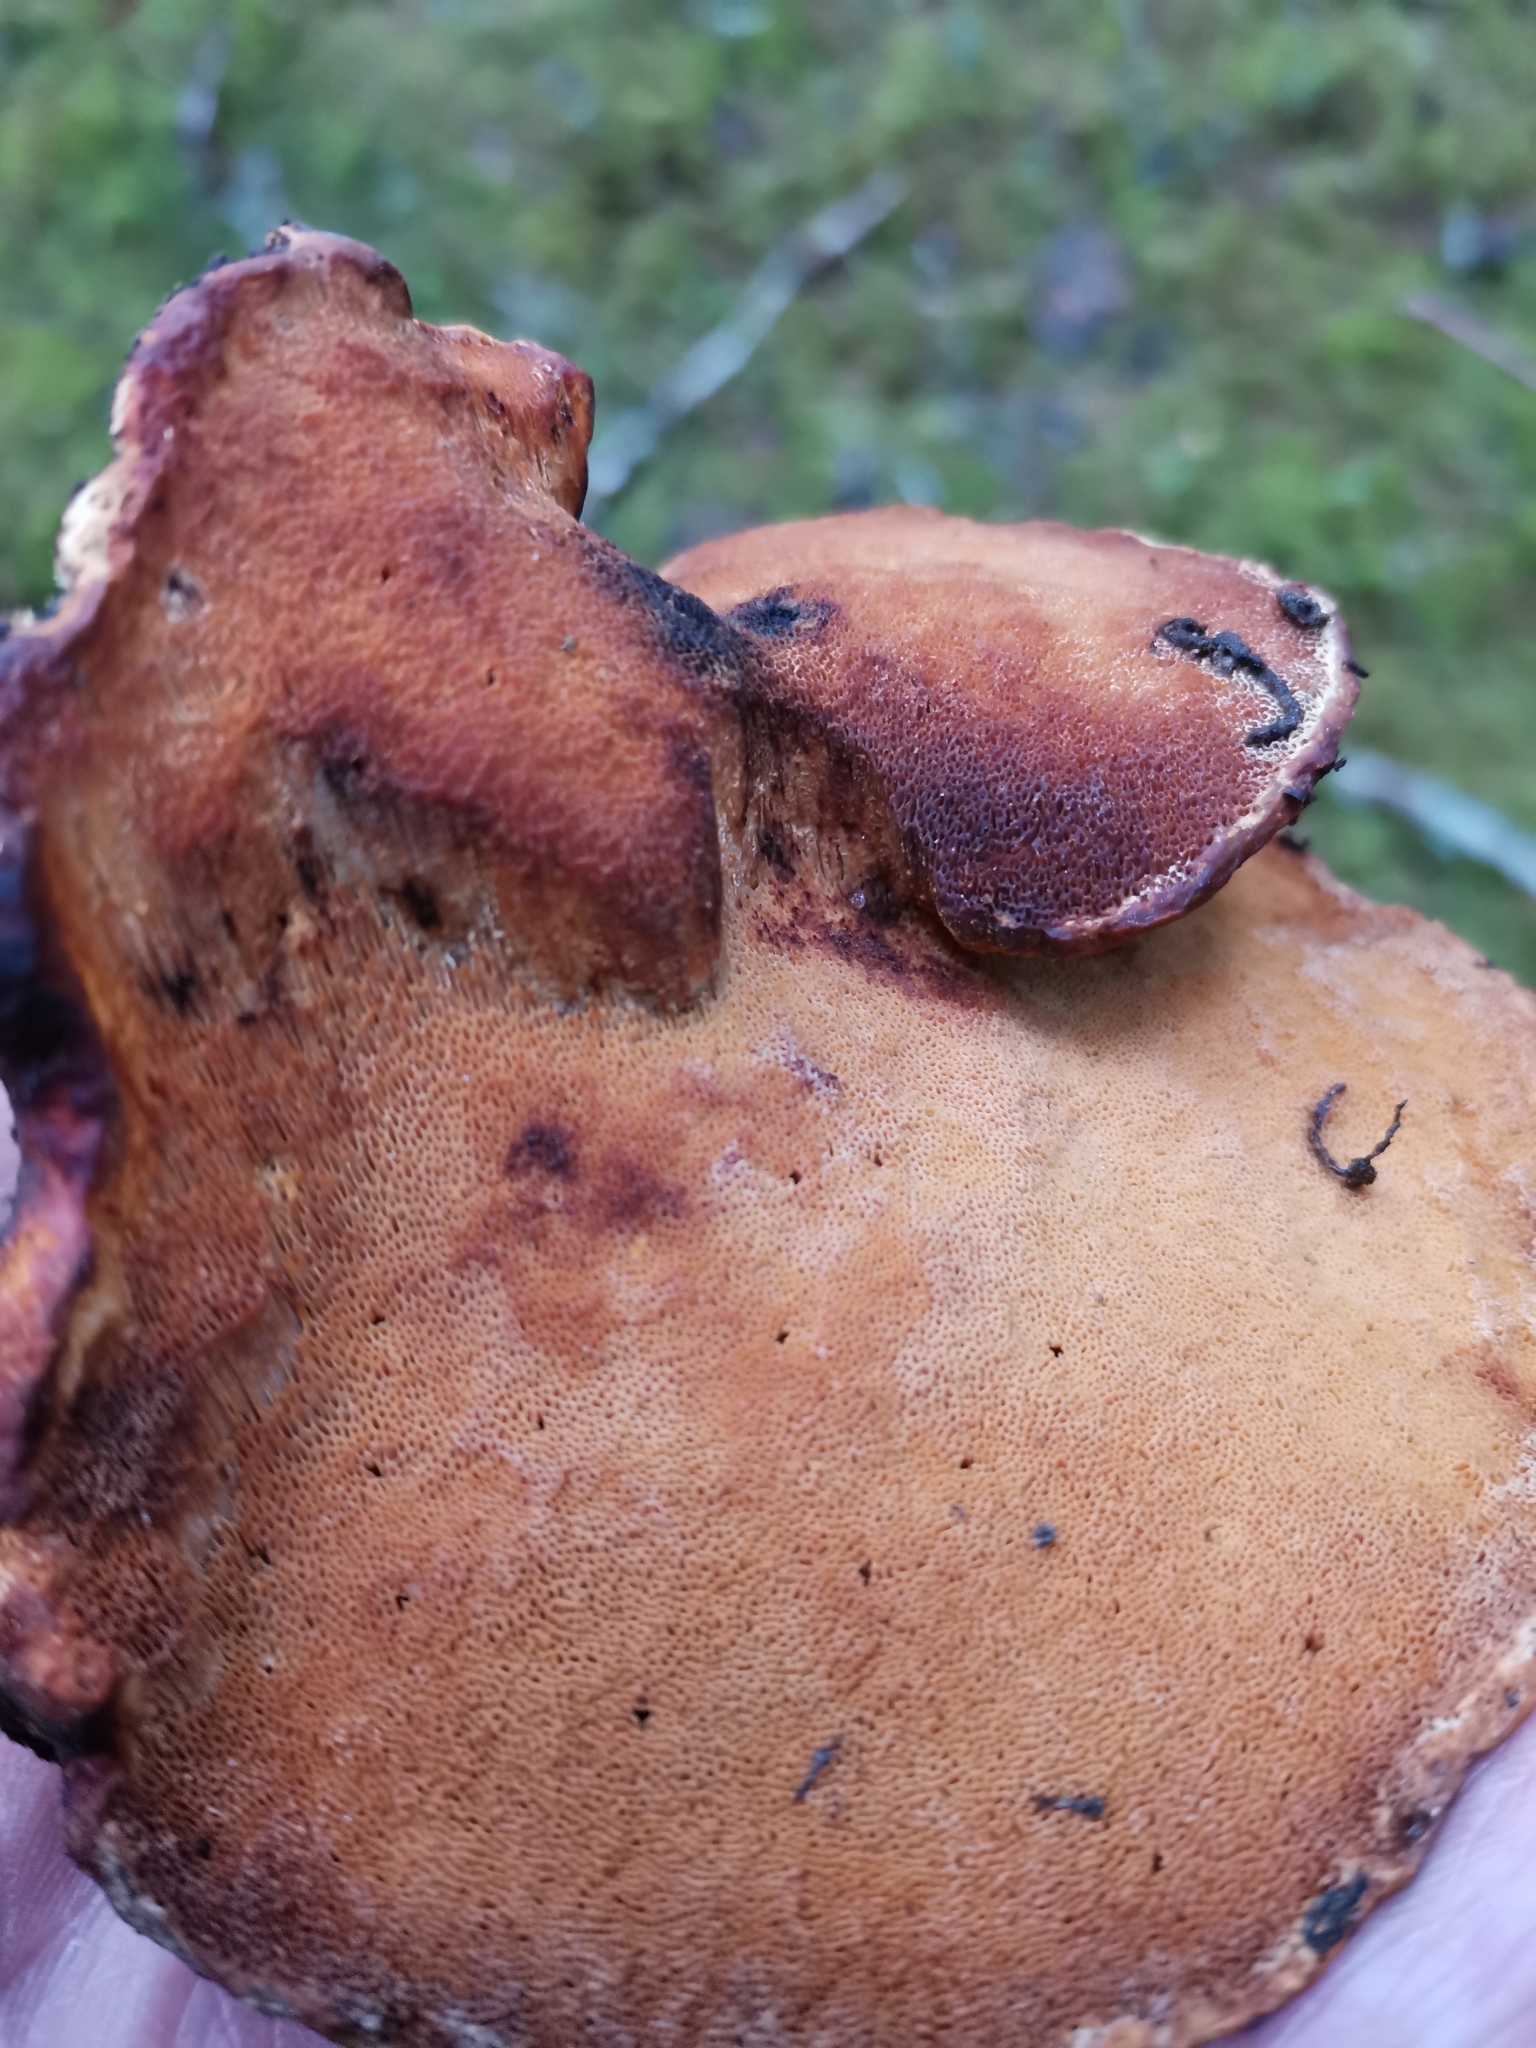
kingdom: Fungi
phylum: Basidiomycota
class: Agaricomycetes
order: Polyporales
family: Fomitopsidaceae
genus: Fomitopsis
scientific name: Fomitopsis pinicola
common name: Red-belted bracket
